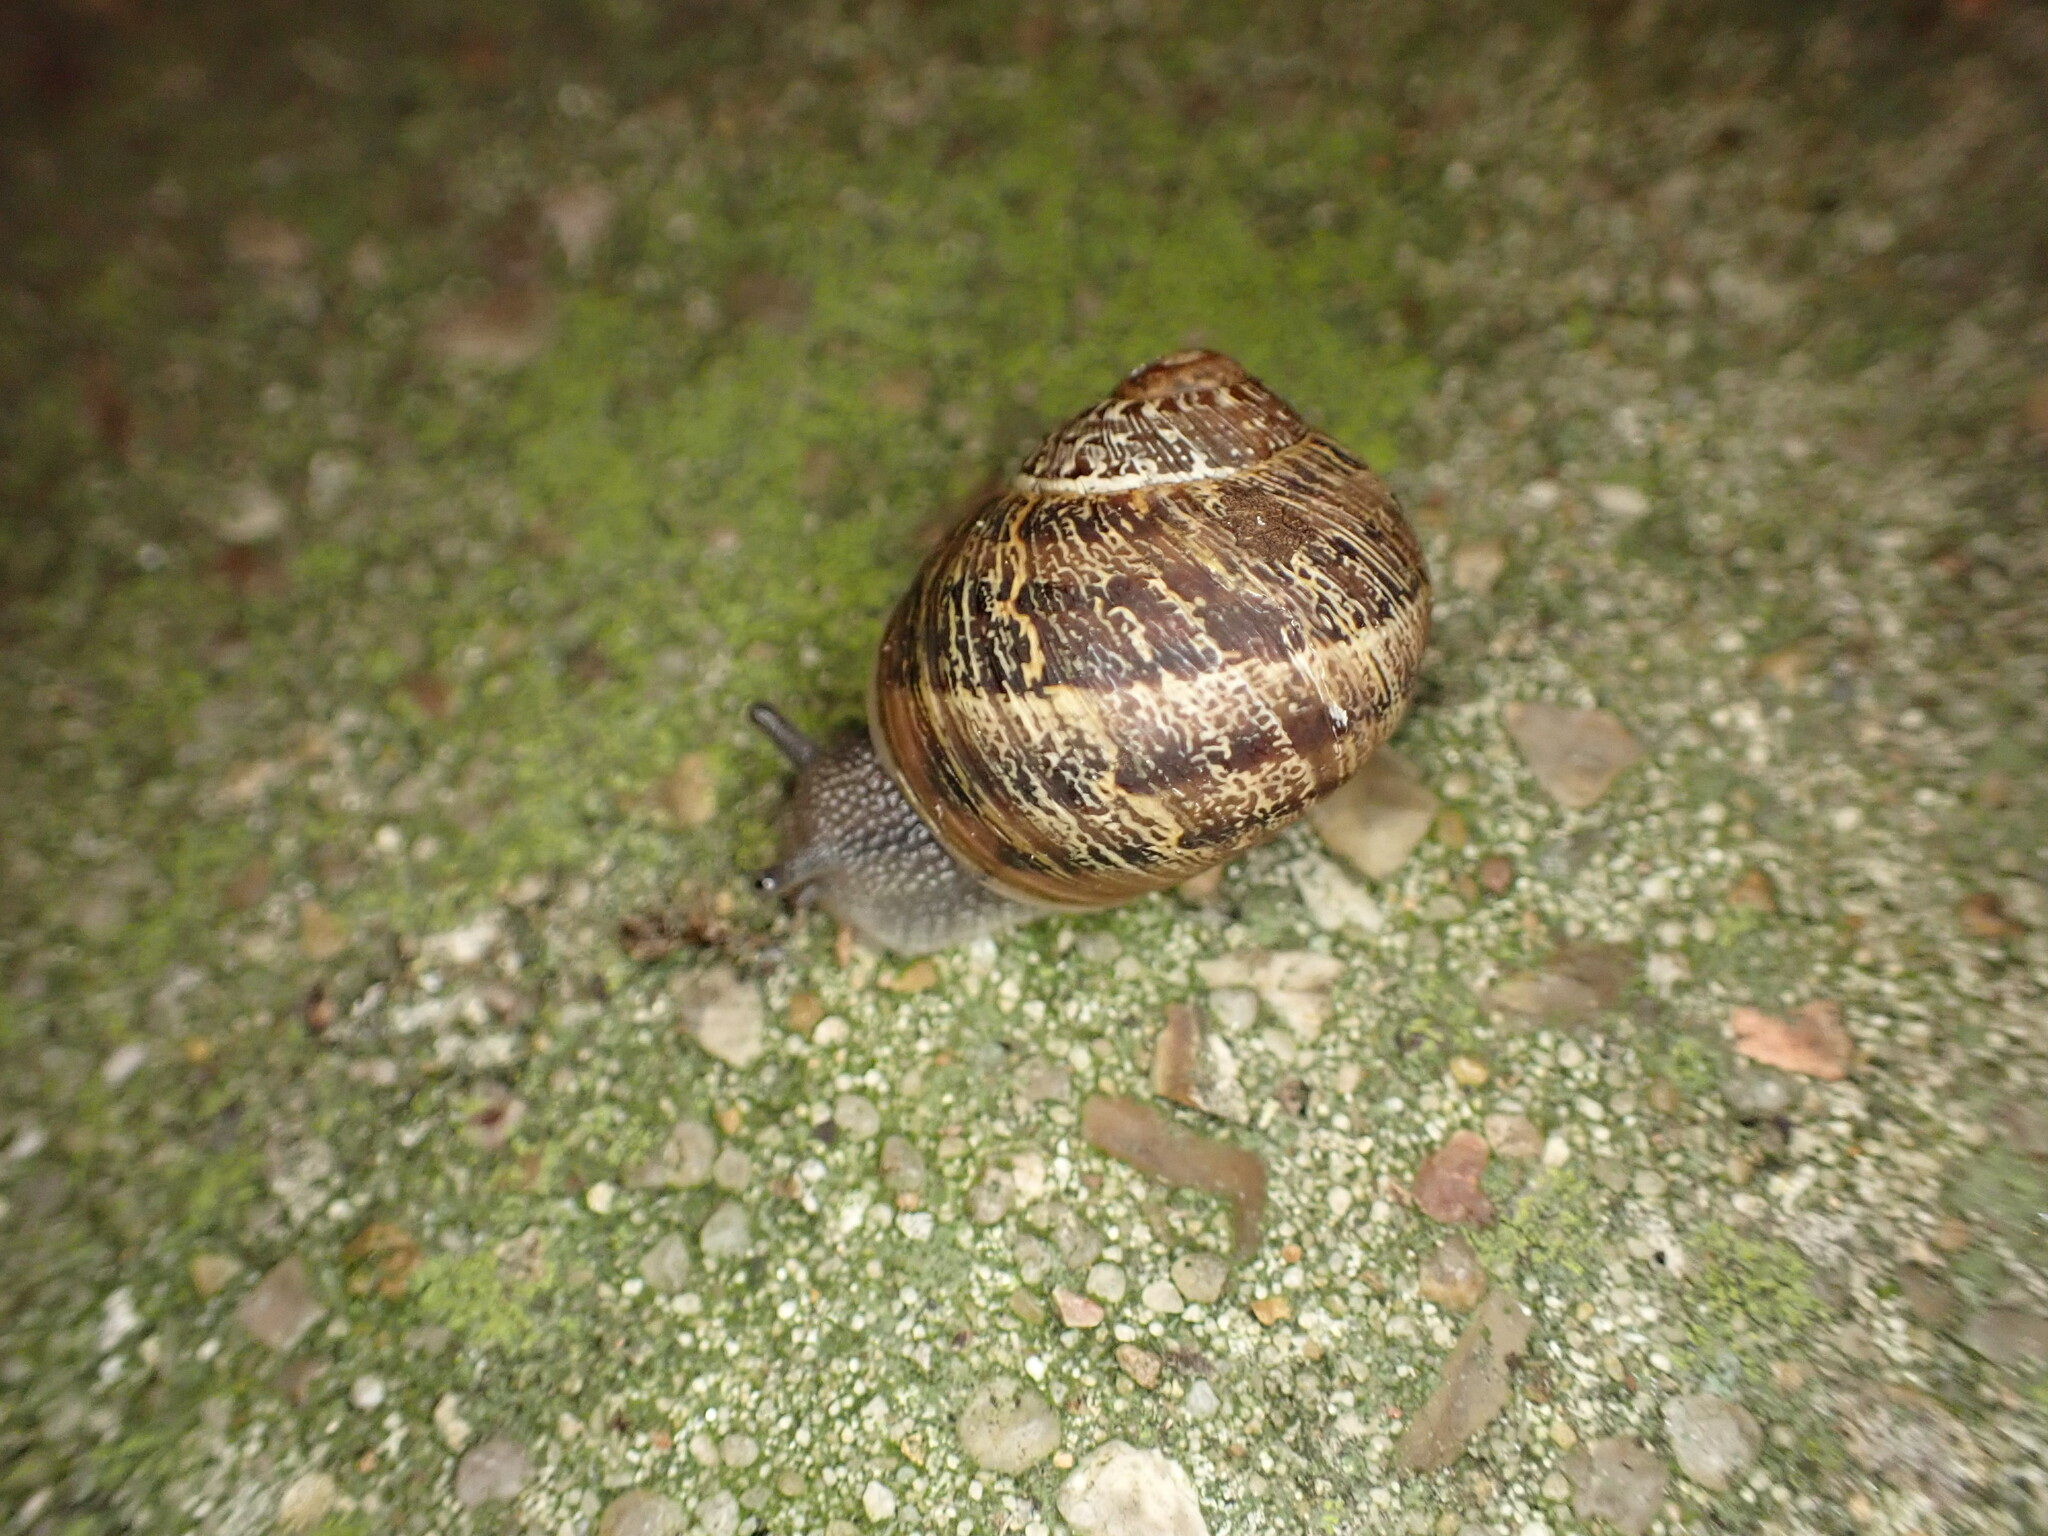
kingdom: Animalia
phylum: Mollusca
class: Gastropoda
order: Stylommatophora
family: Helicidae
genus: Cornu
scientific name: Cornu aspersum
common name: Brown garden snail
